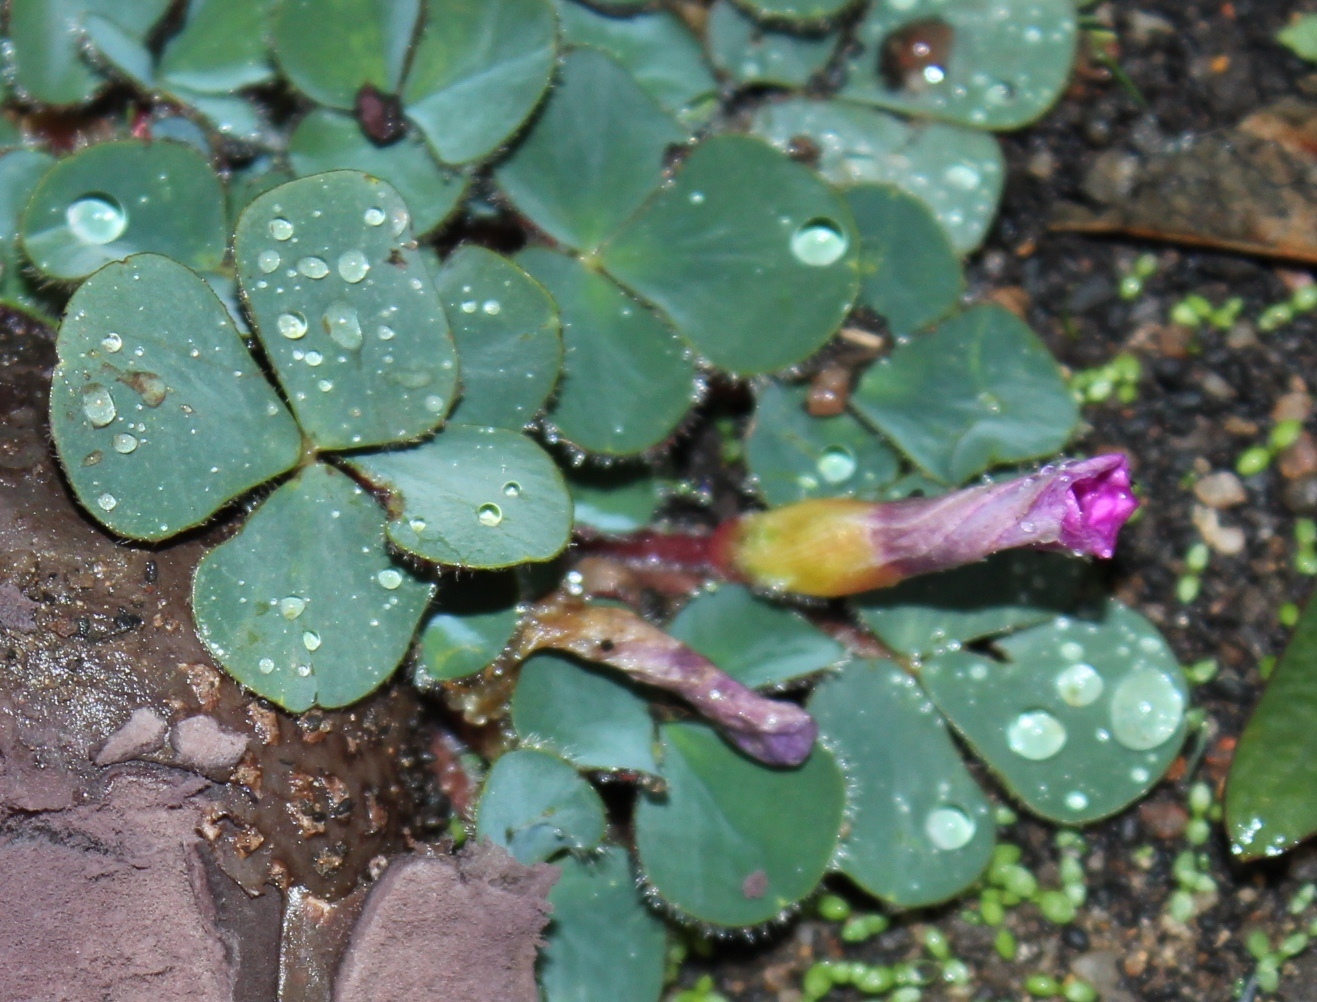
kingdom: Plantae
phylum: Tracheophyta
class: Magnoliopsida
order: Oxalidales
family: Oxalidaceae
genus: Oxalis
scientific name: Oxalis purpurea
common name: Purple woodsorrel
